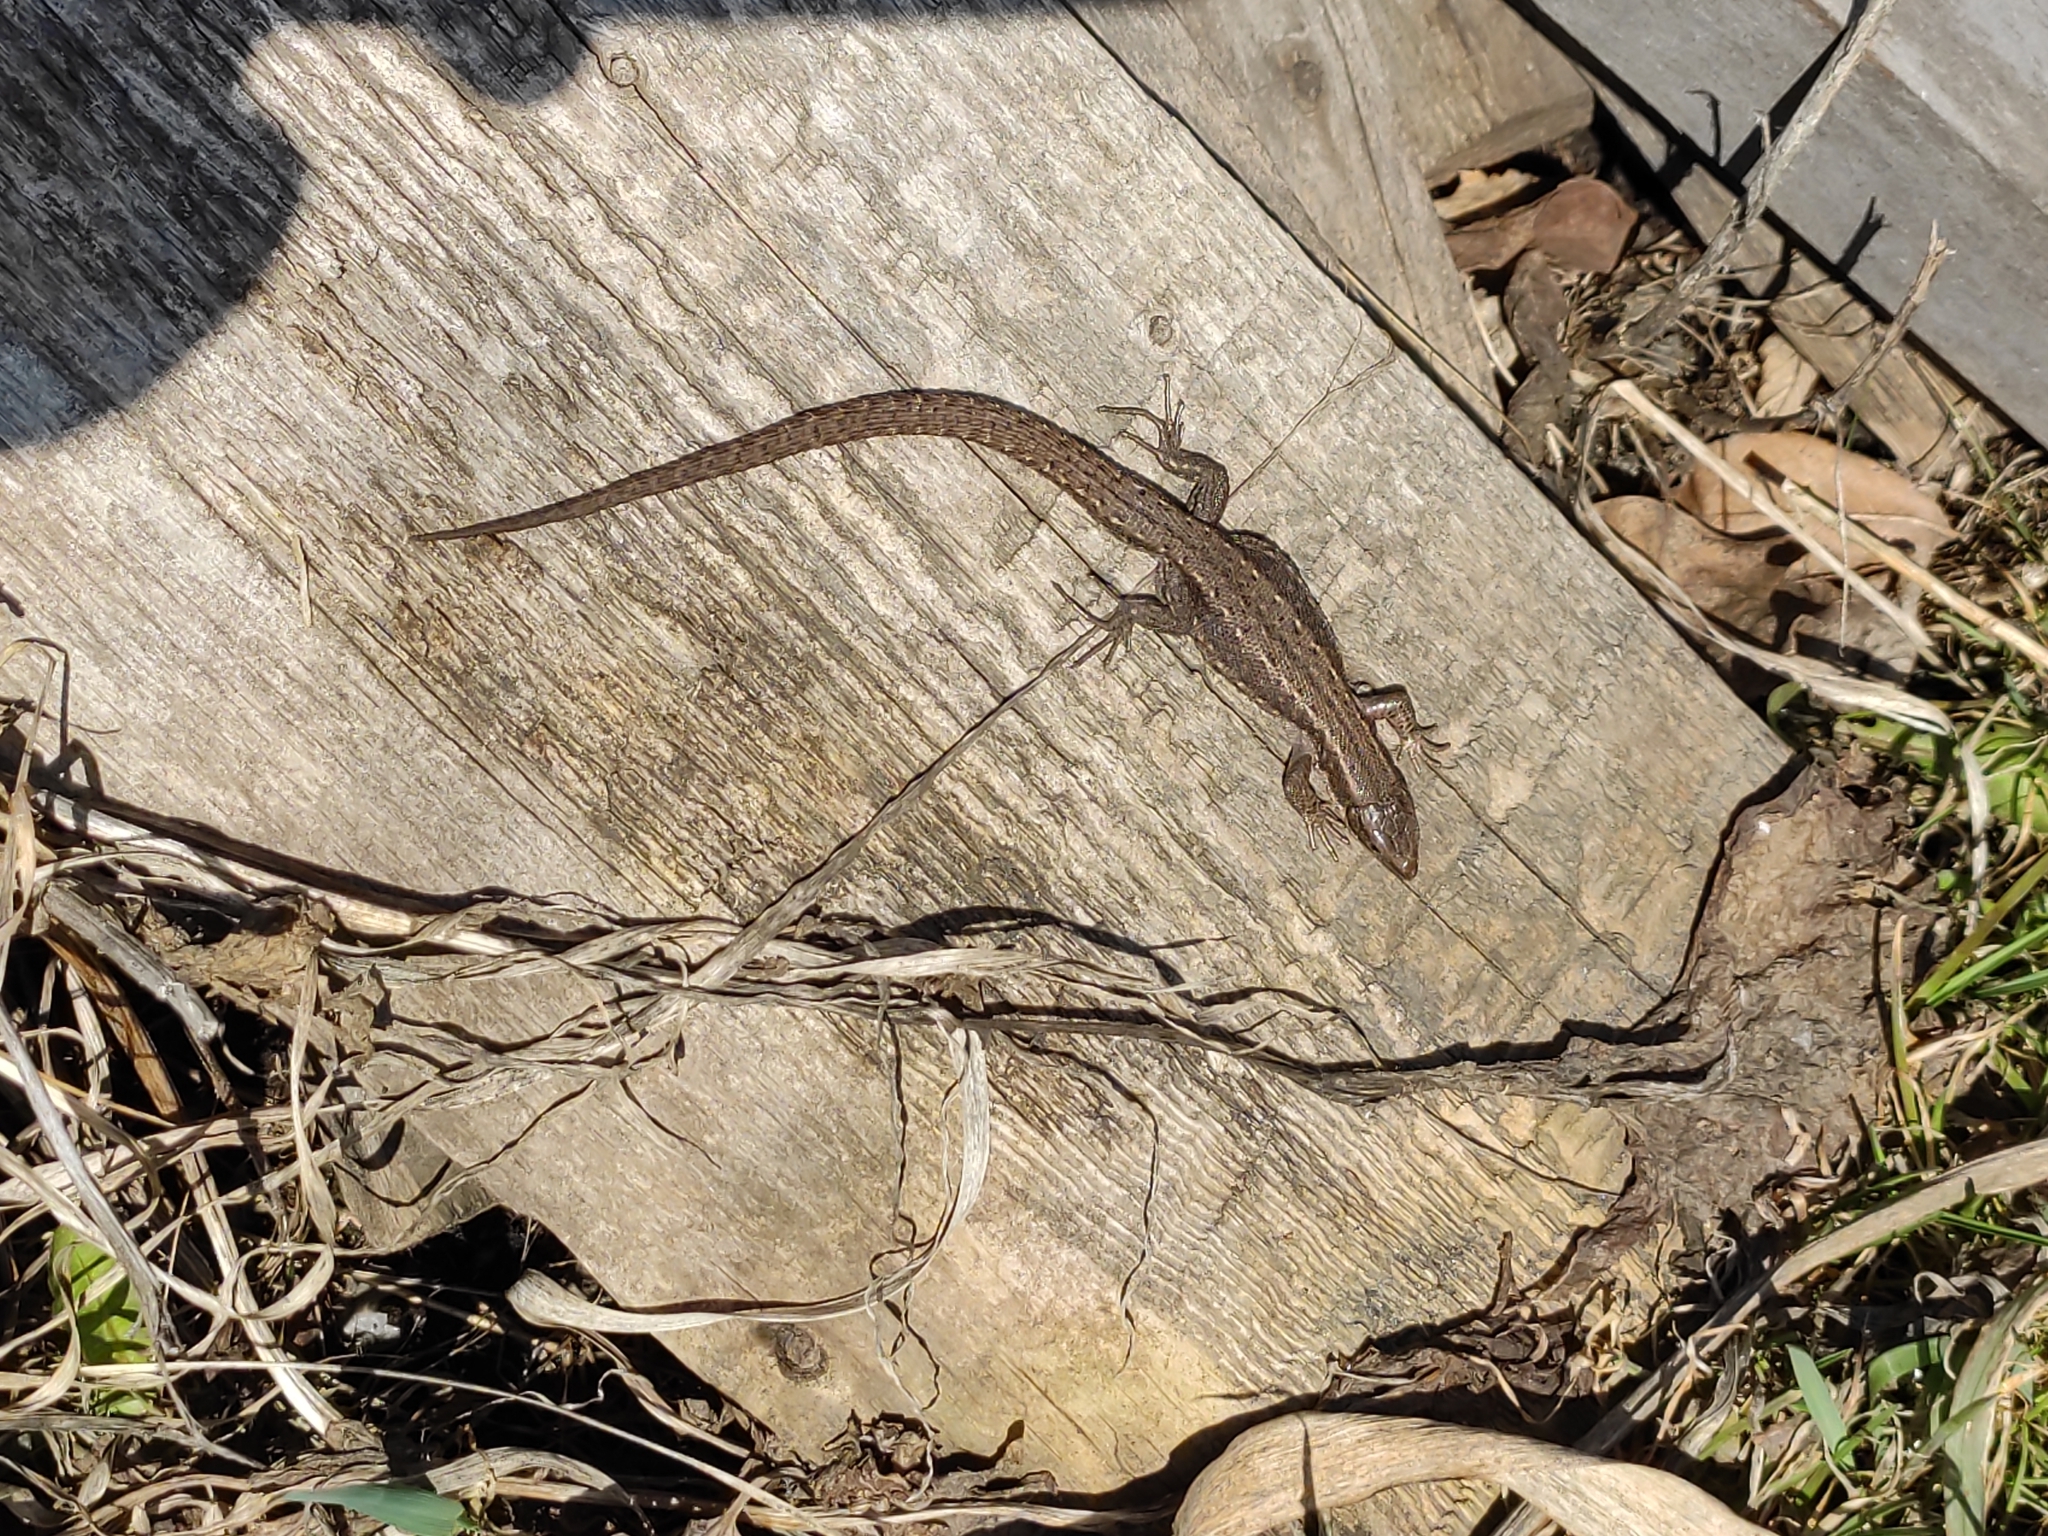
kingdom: Animalia
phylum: Chordata
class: Squamata
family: Lacertidae
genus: Zootoca
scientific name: Zootoca vivipara
